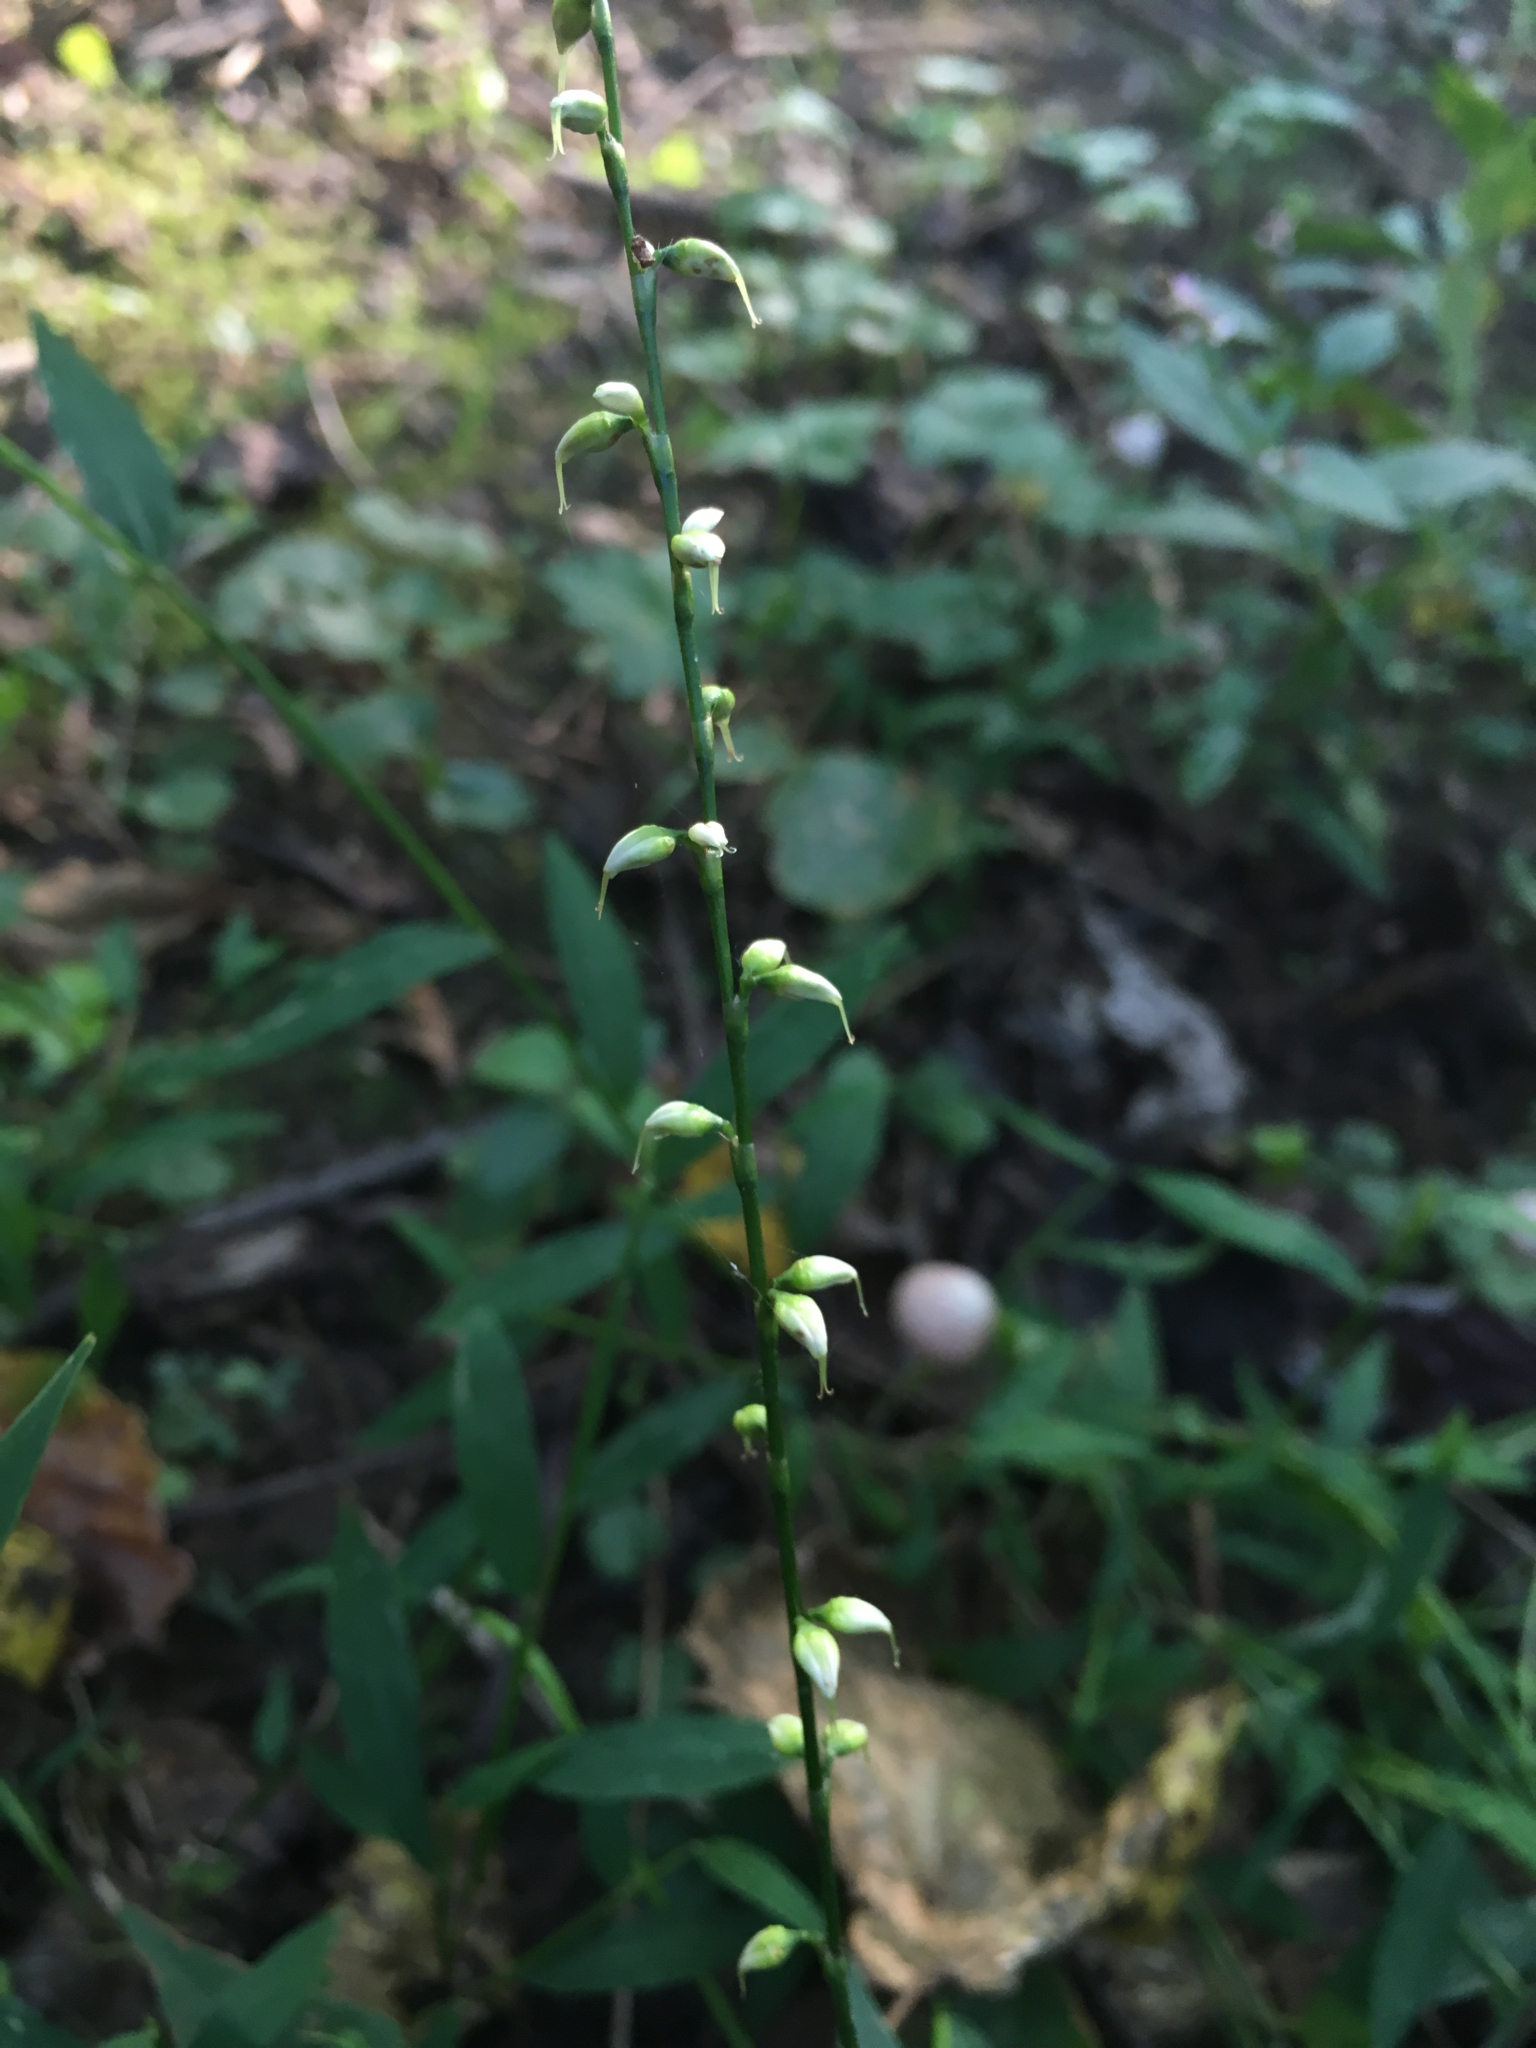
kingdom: Plantae
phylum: Tracheophyta
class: Magnoliopsida
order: Caryophyllales
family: Polygonaceae
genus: Persicaria
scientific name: Persicaria virginiana
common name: Jumpseed
